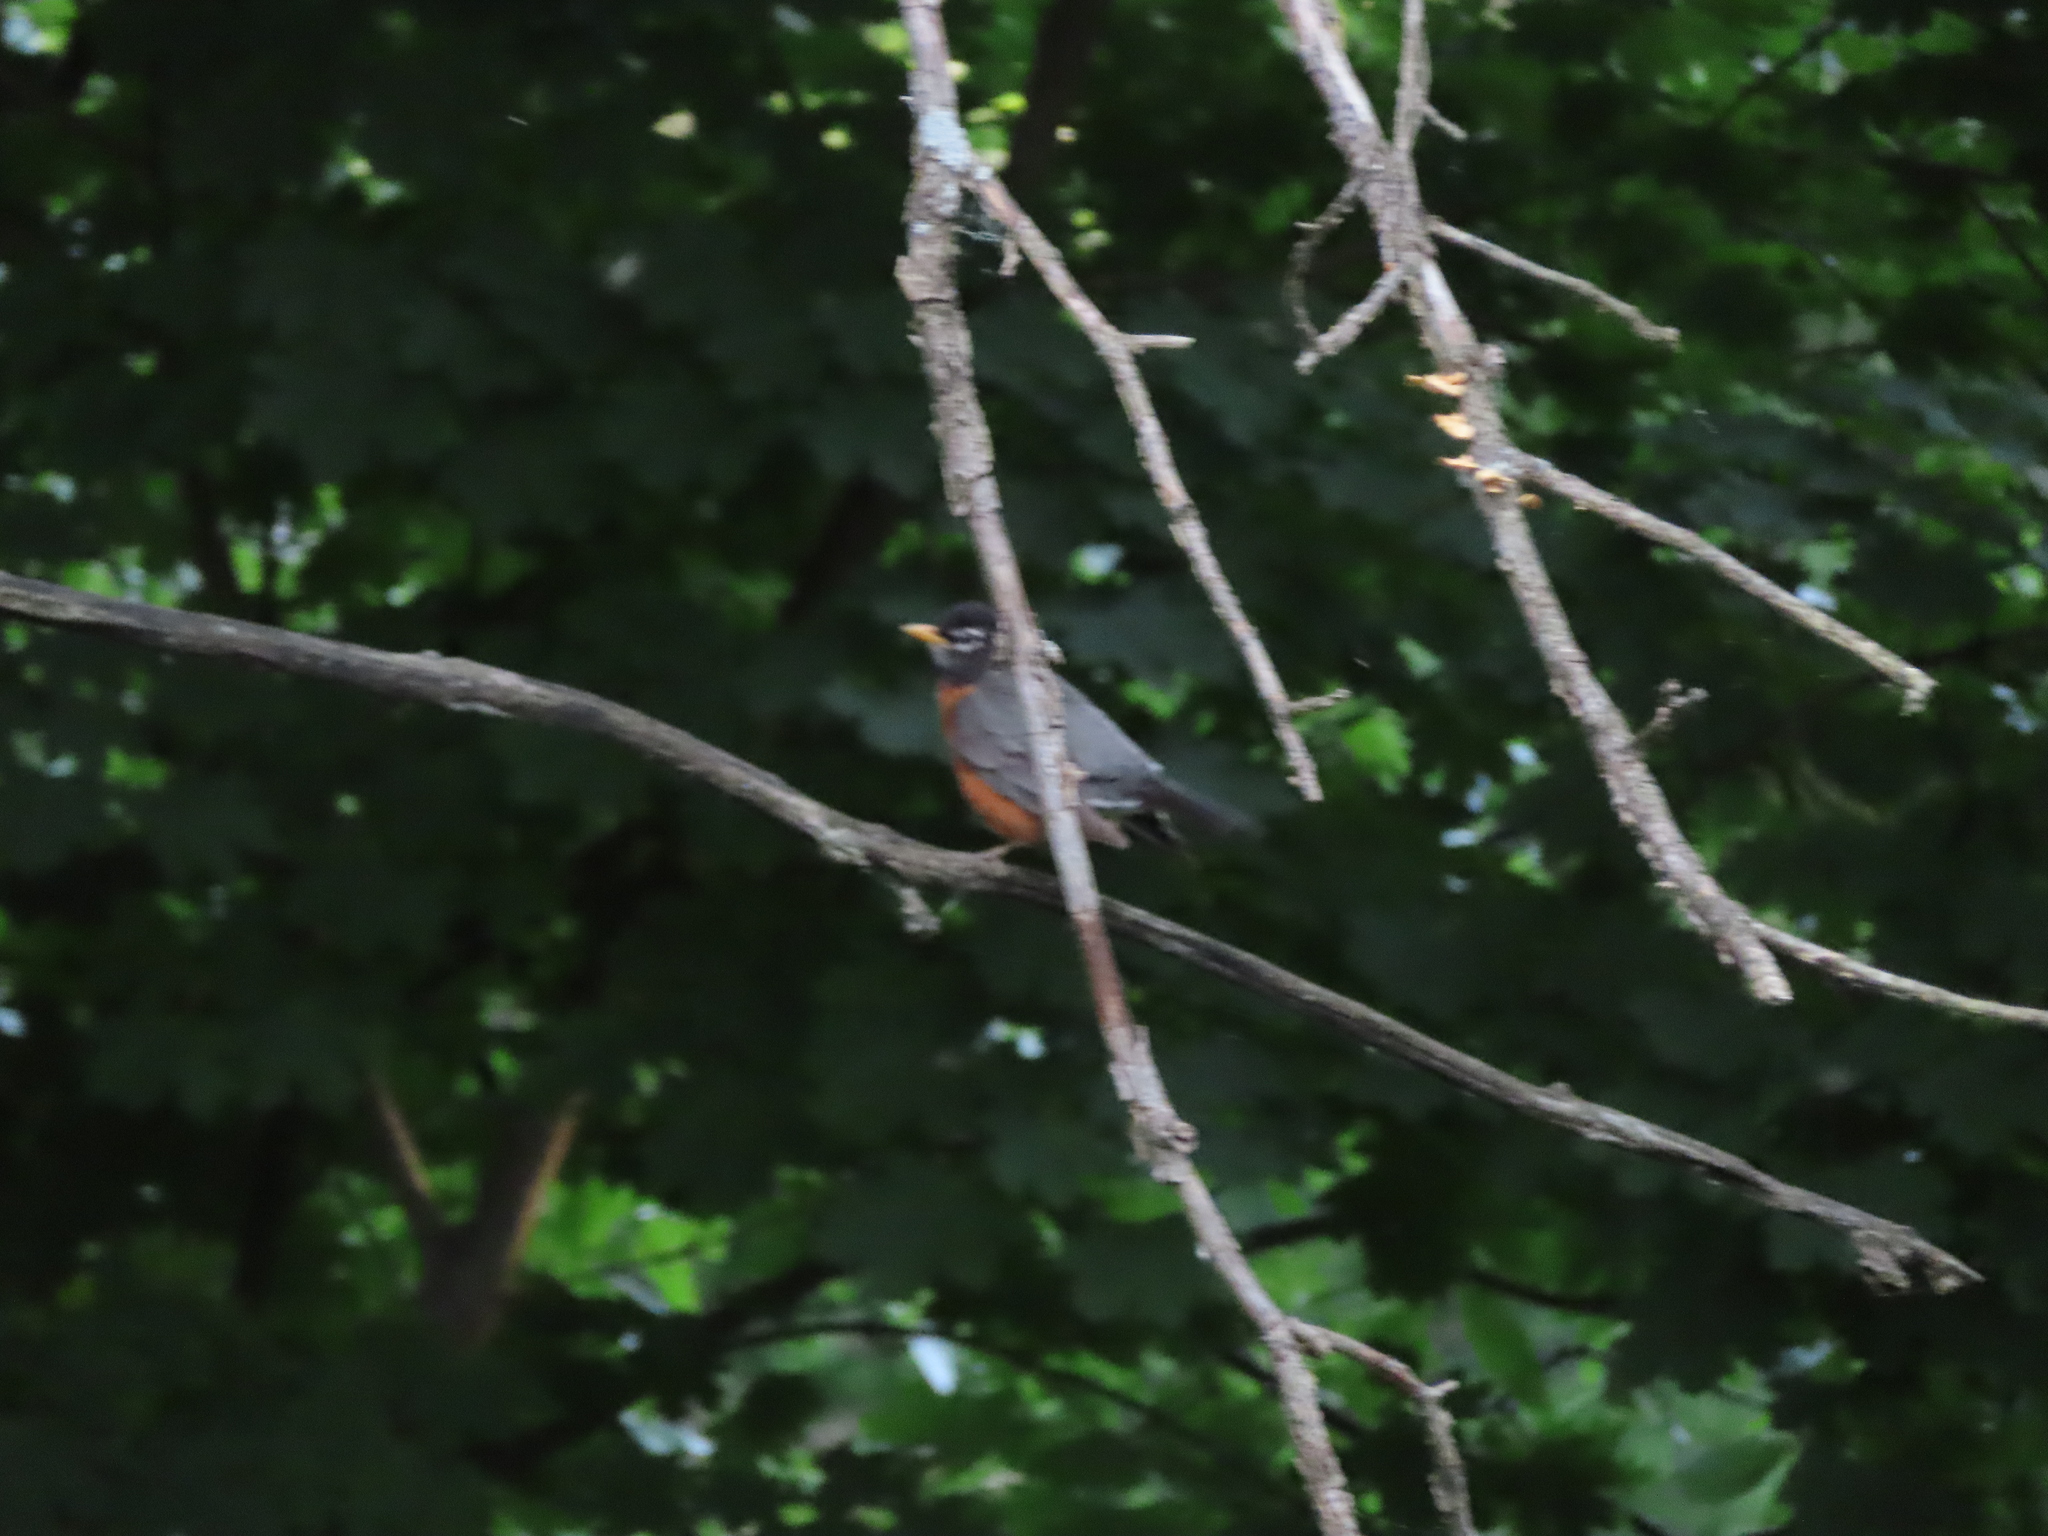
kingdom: Animalia
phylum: Chordata
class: Aves
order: Passeriformes
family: Turdidae
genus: Turdus
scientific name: Turdus migratorius
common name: American robin
